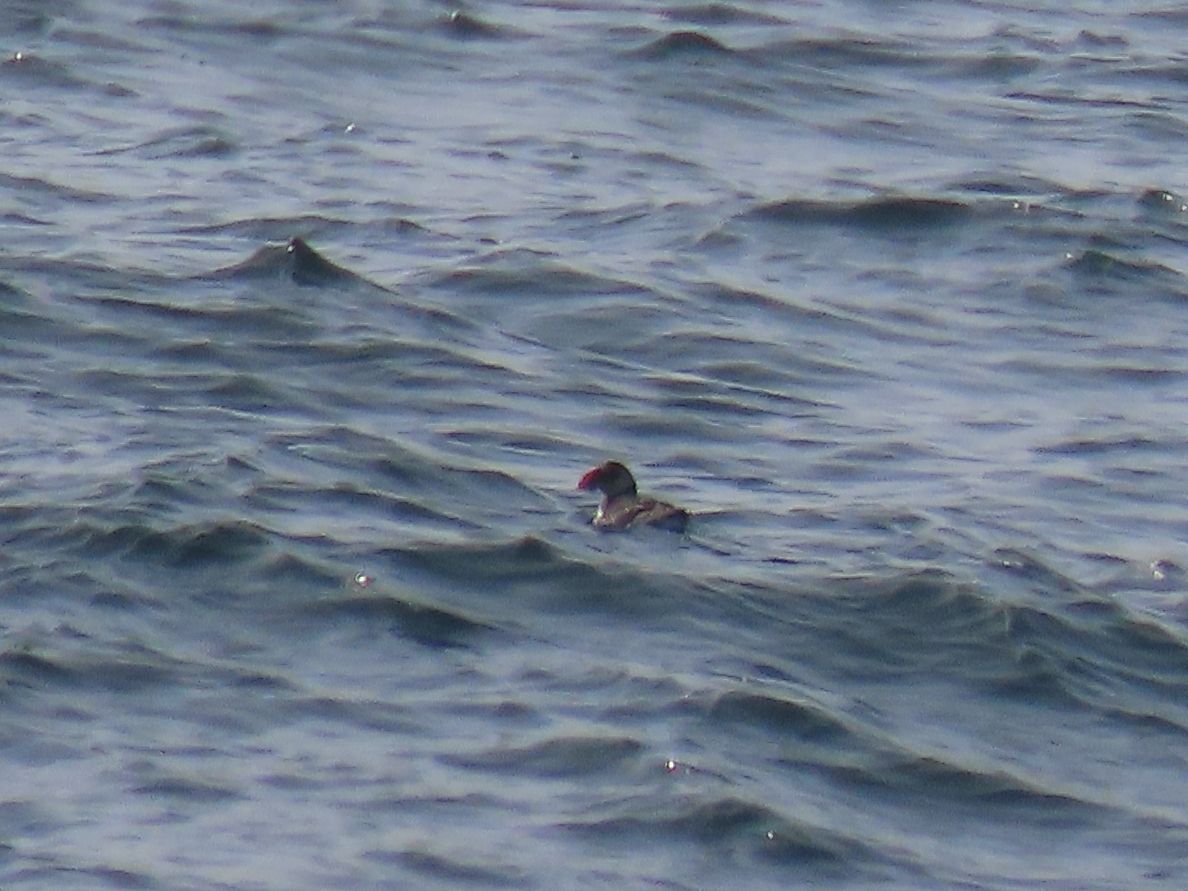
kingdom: Animalia
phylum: Chordata
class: Aves
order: Charadriiformes
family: Alcidae
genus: Fratercula
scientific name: Fratercula arctica
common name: Atlantic puffin
